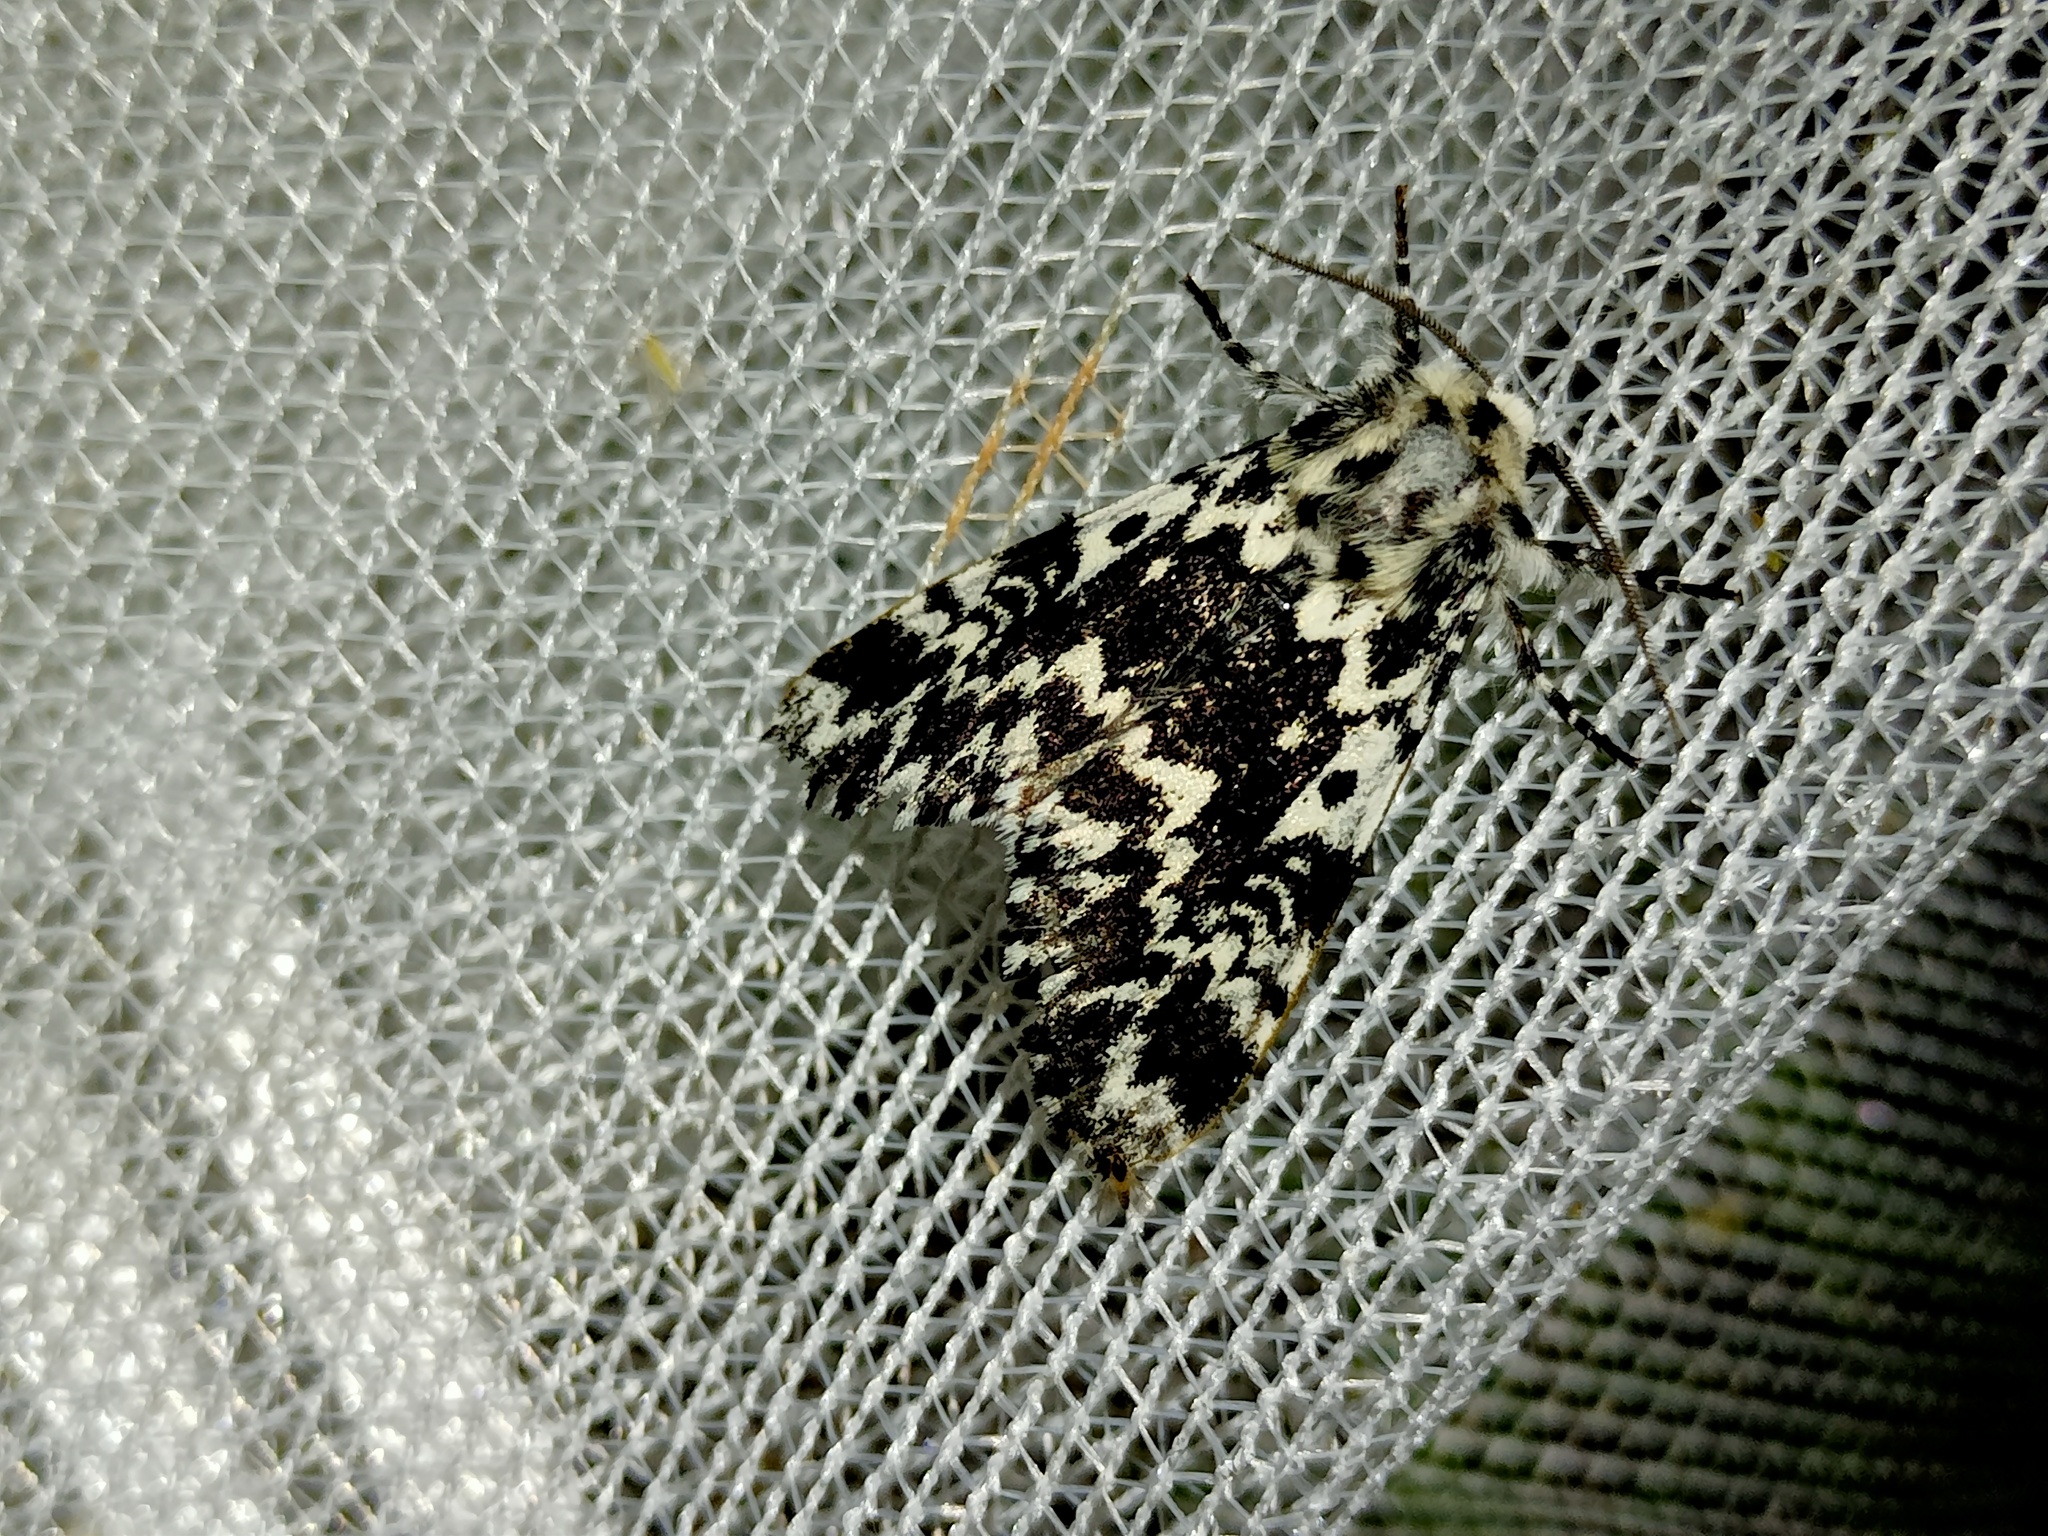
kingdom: Animalia
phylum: Arthropoda
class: Insecta
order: Lepidoptera
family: Noctuidae
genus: Panthea
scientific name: Panthea coenobita
